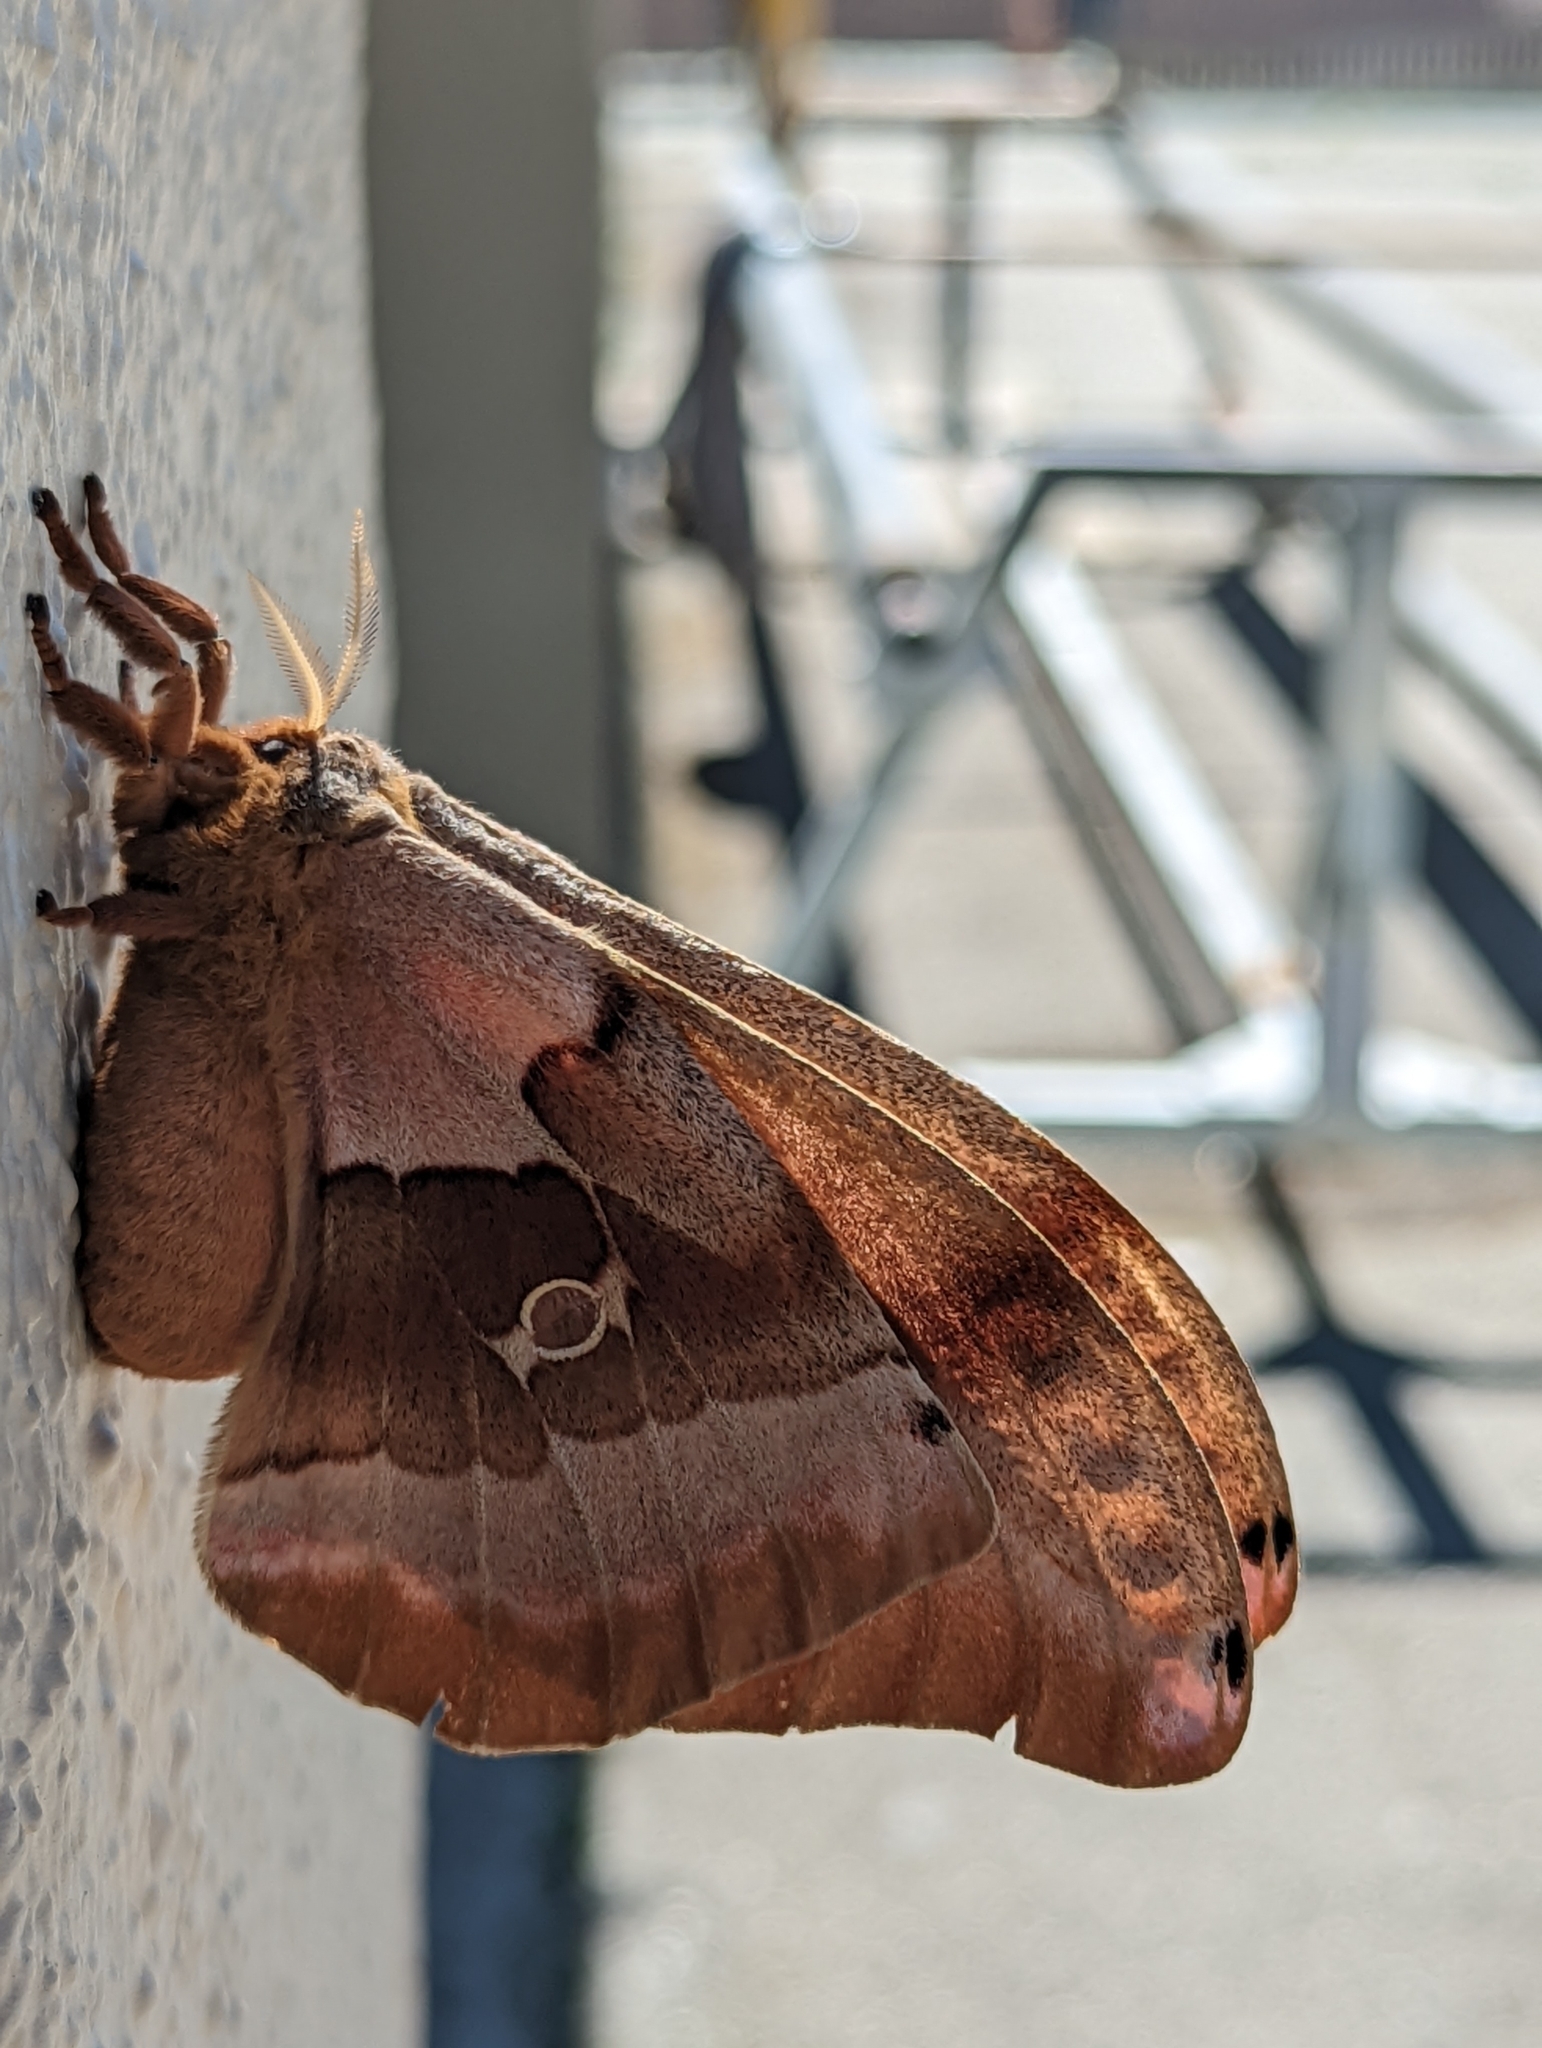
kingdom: Animalia
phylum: Arthropoda
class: Insecta
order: Lepidoptera
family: Saturniidae
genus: Antheraea
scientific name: Antheraea polyphemus
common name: Polyphemus moth
